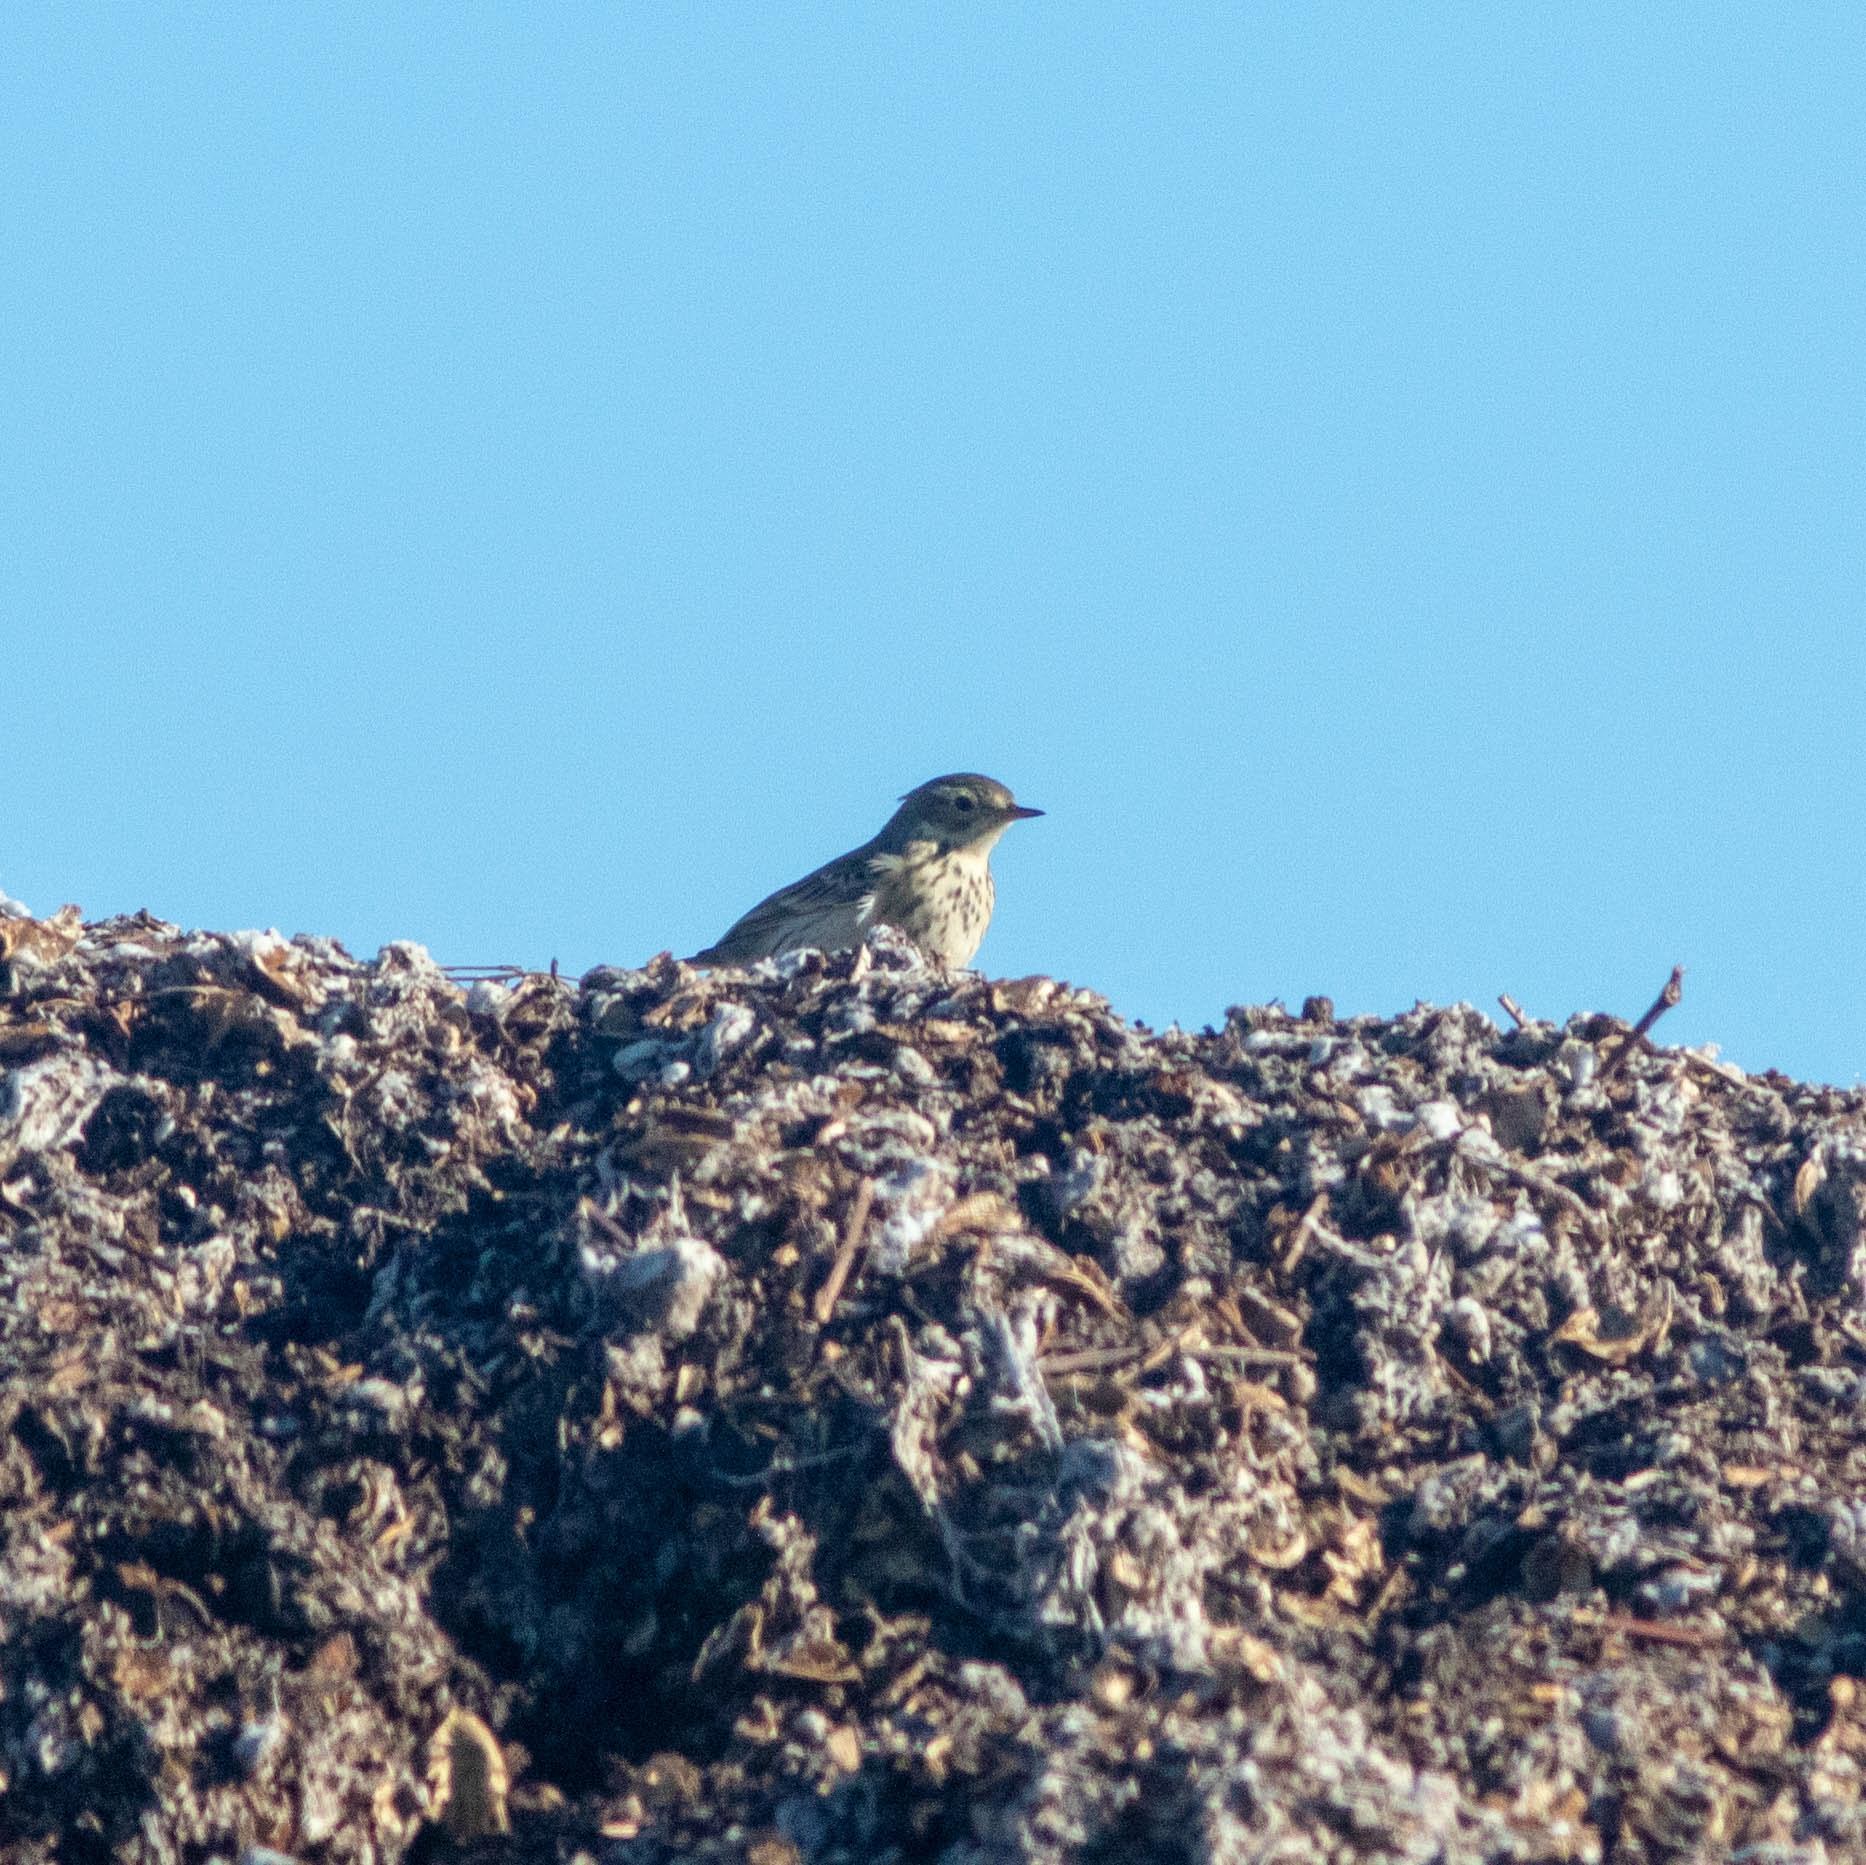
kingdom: Animalia
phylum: Chordata
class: Aves
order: Passeriformes
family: Motacillidae
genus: Anthus
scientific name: Anthus rubescens
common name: Buff-bellied pipit
